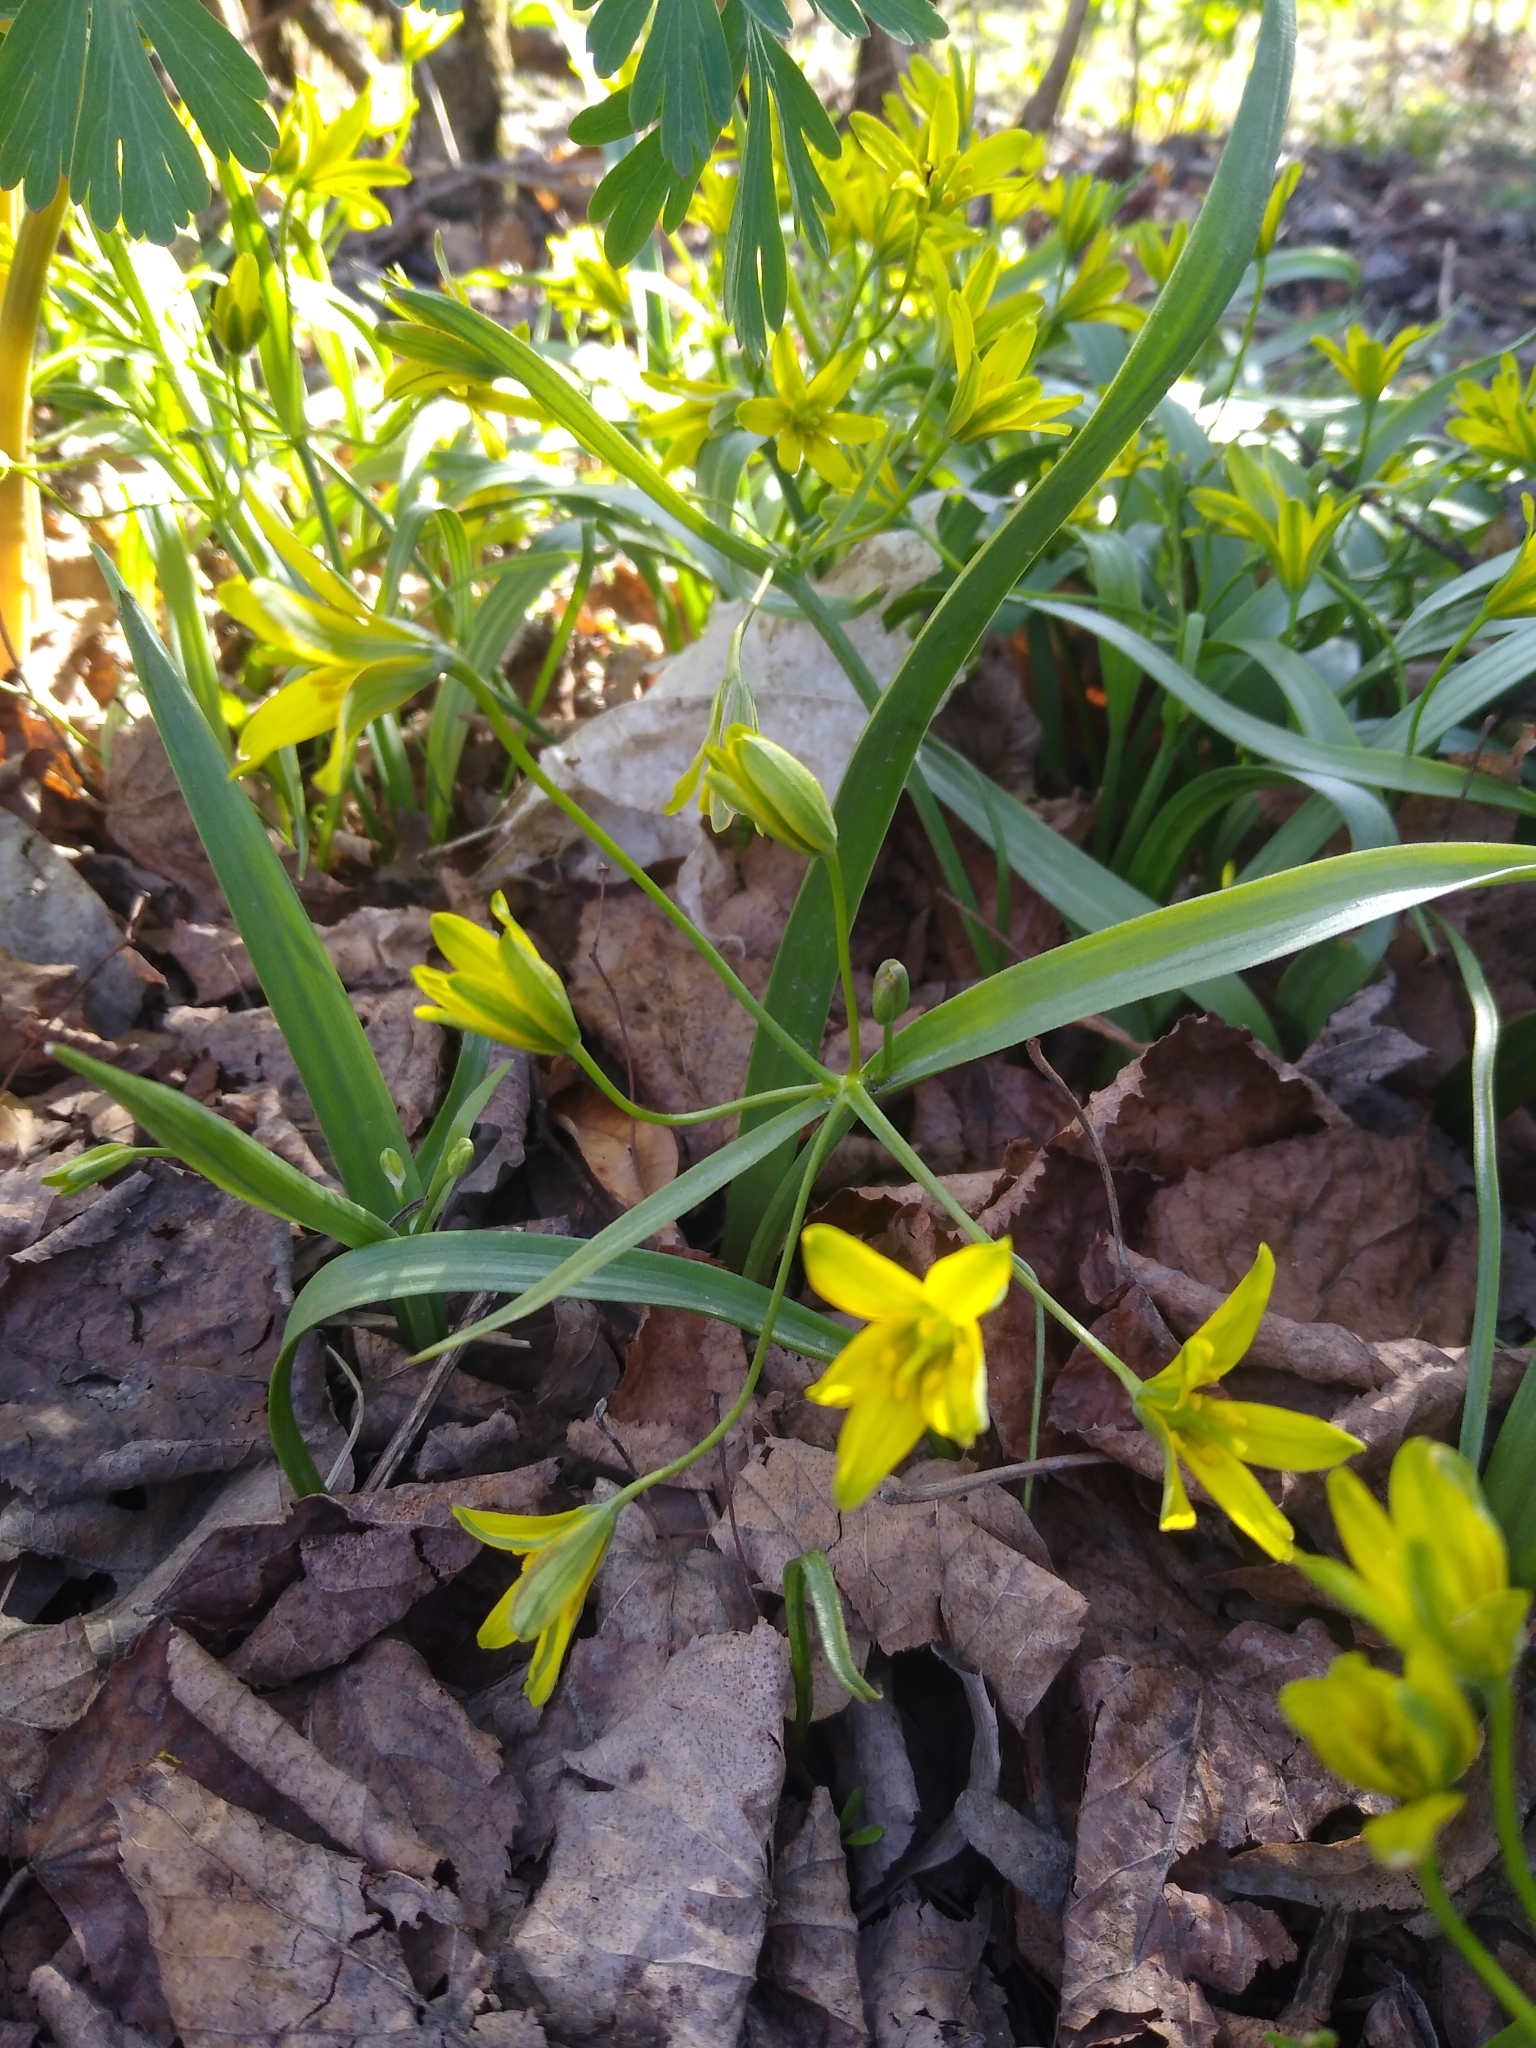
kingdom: Plantae
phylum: Tracheophyta
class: Liliopsida
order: Liliales
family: Liliaceae
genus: Gagea
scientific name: Gagea lutea
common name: Yellow star-of-bethlehem
